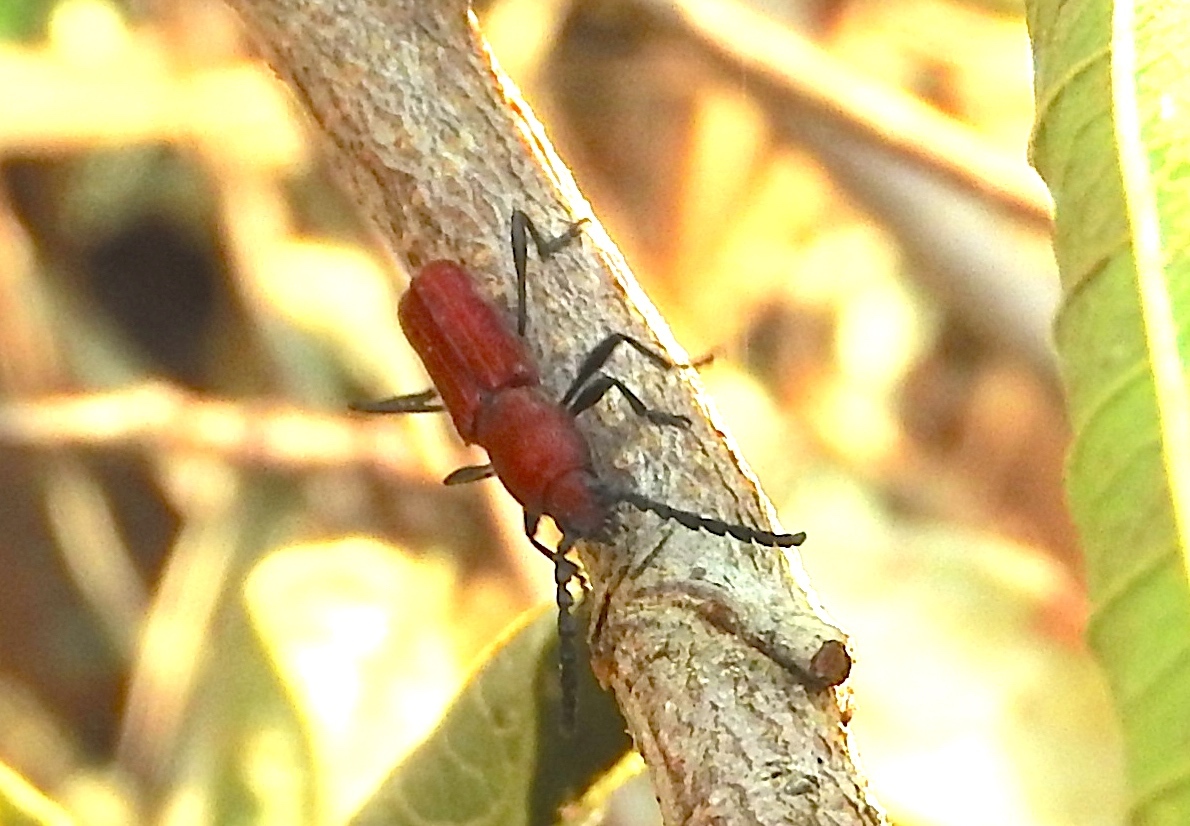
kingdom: Animalia
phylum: Arthropoda
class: Insecta
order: Coleoptera
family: Cerambycidae
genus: Assycuera
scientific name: Assycuera rubella
